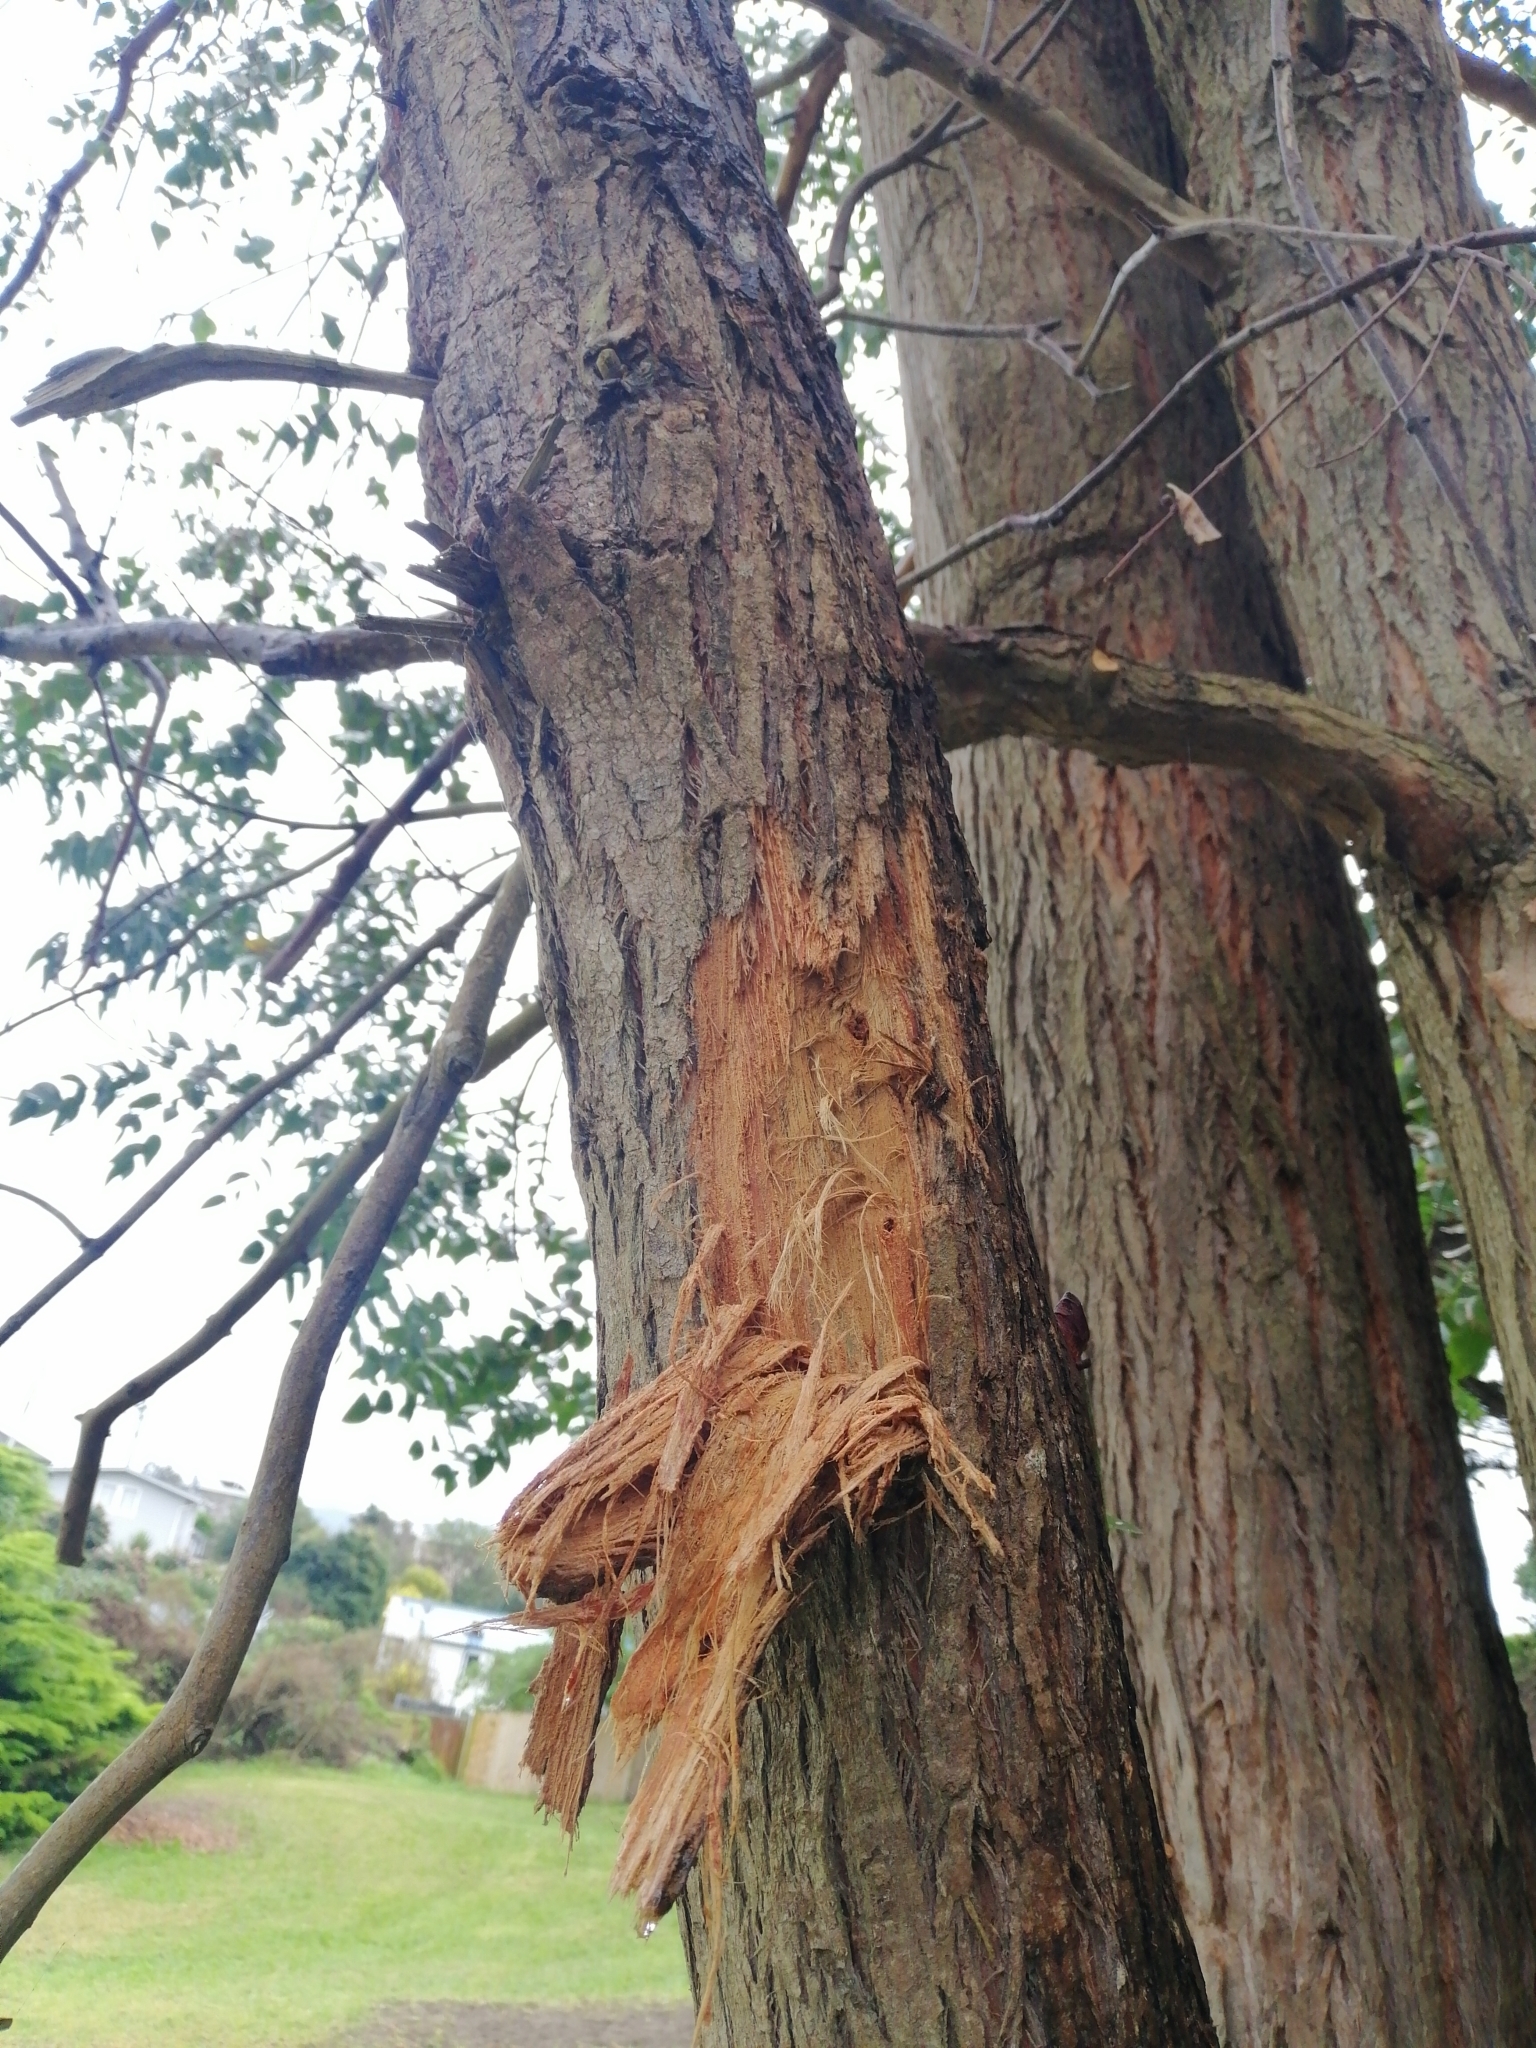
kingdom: Animalia
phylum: Chordata
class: Aves
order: Psittaciformes
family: Psittacidae
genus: Nestor
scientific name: Nestor meridionalis
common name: New zealand kaka
